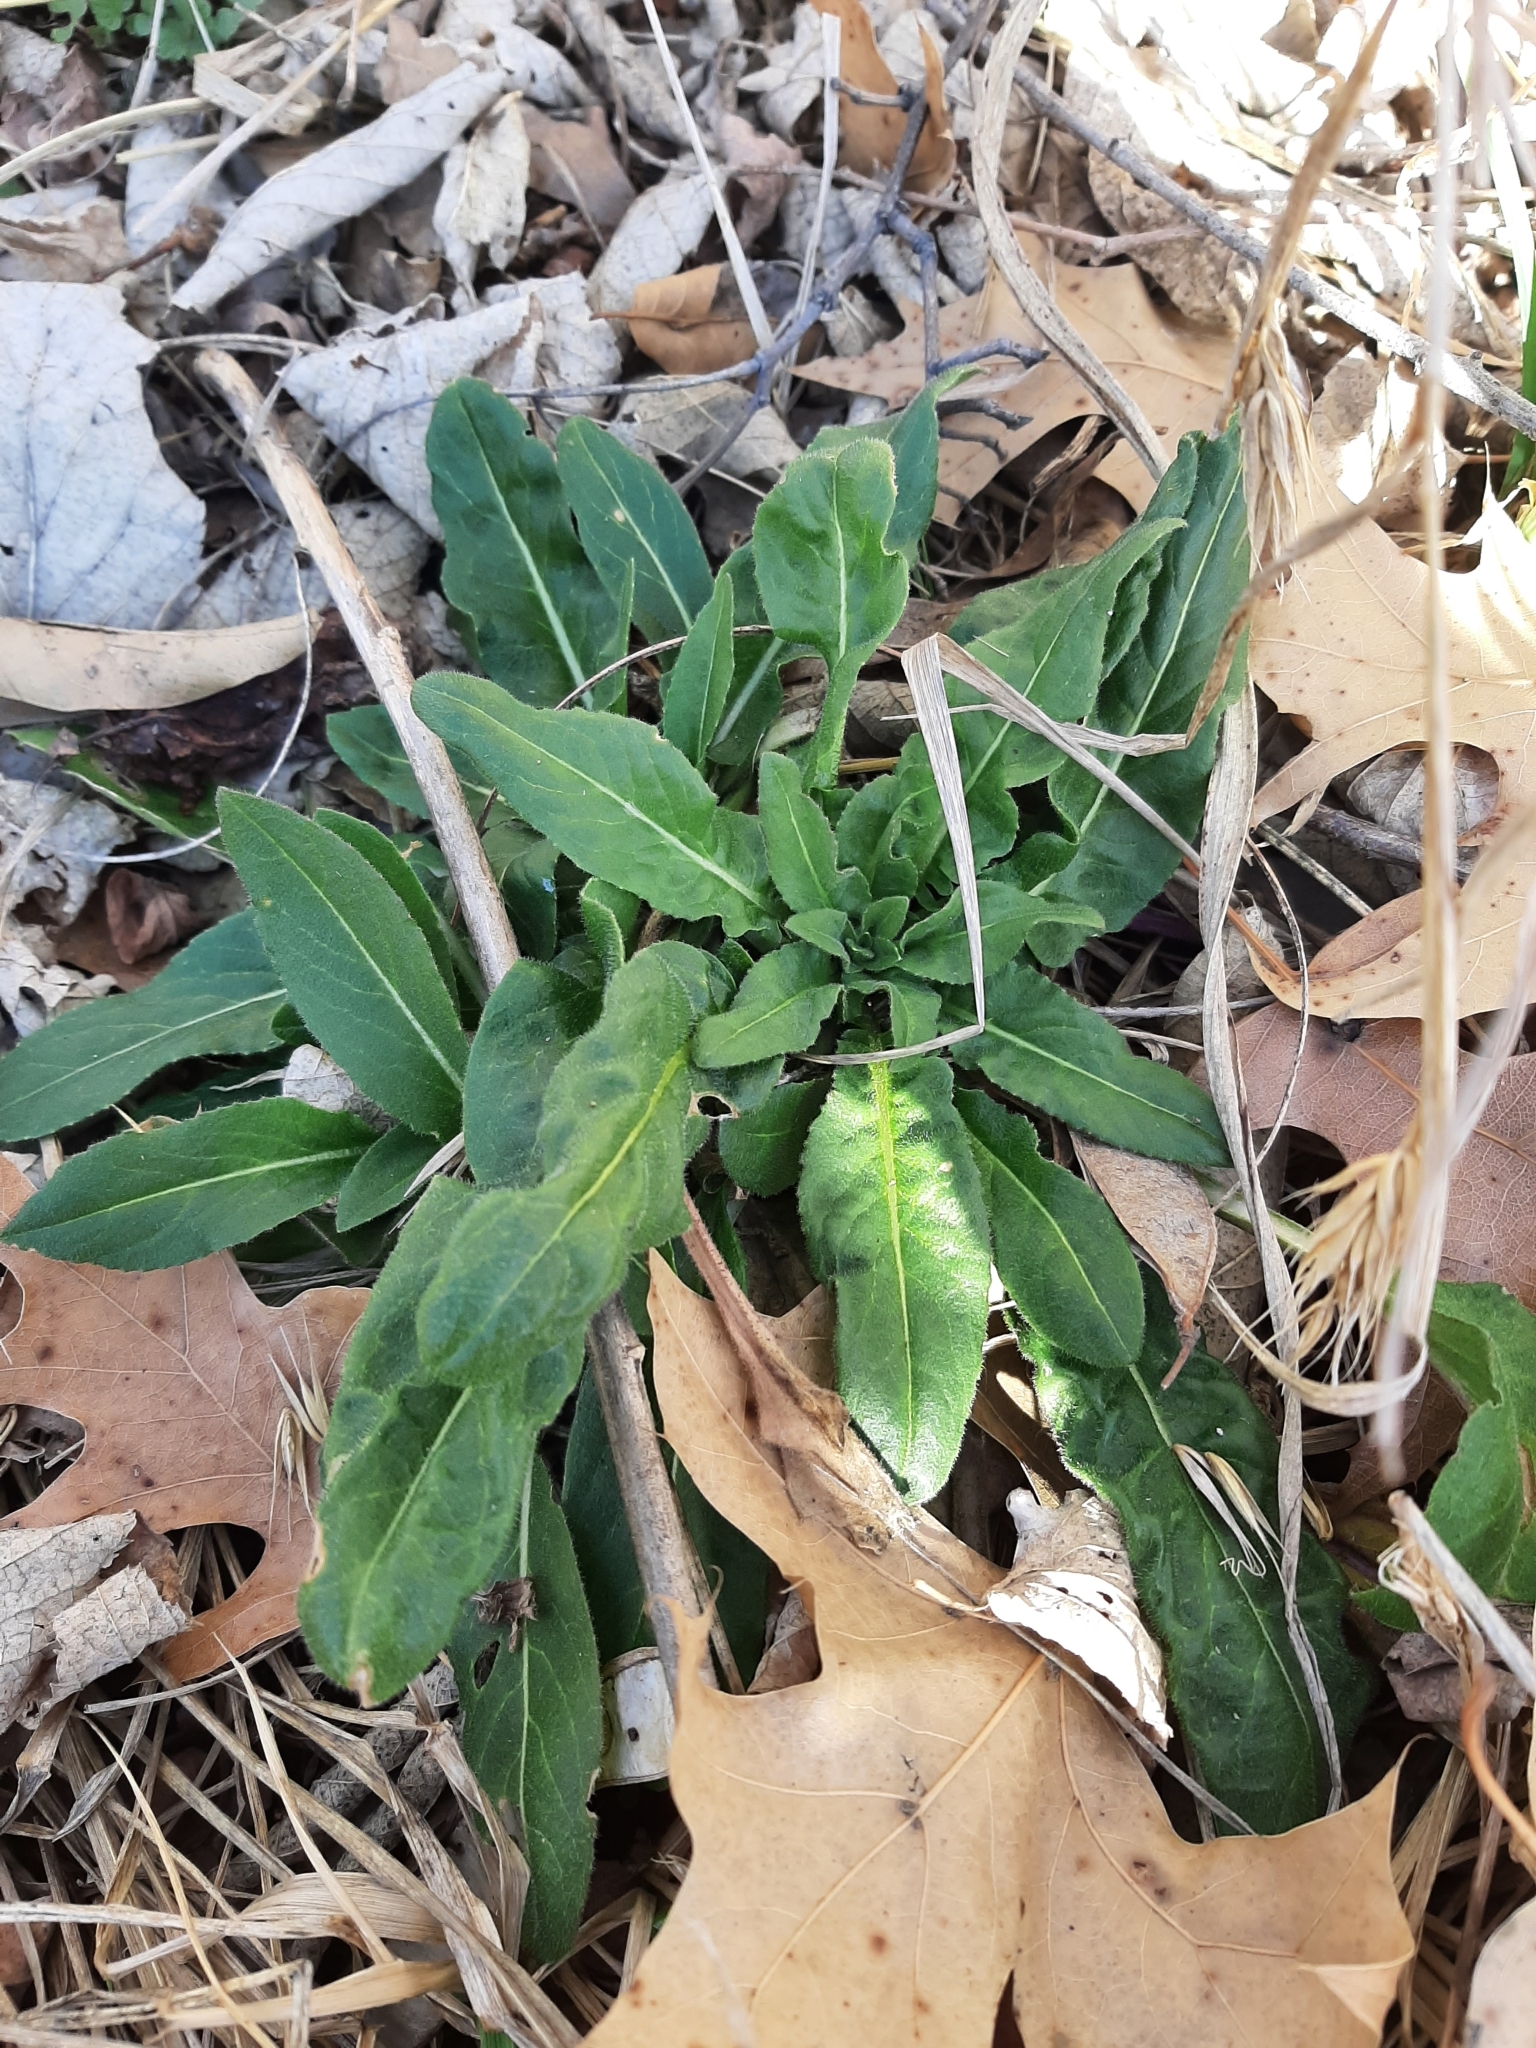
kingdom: Plantae
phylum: Tracheophyta
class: Magnoliopsida
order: Brassicales
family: Brassicaceae
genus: Hesperis
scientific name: Hesperis matronalis
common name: Dame's-violet
